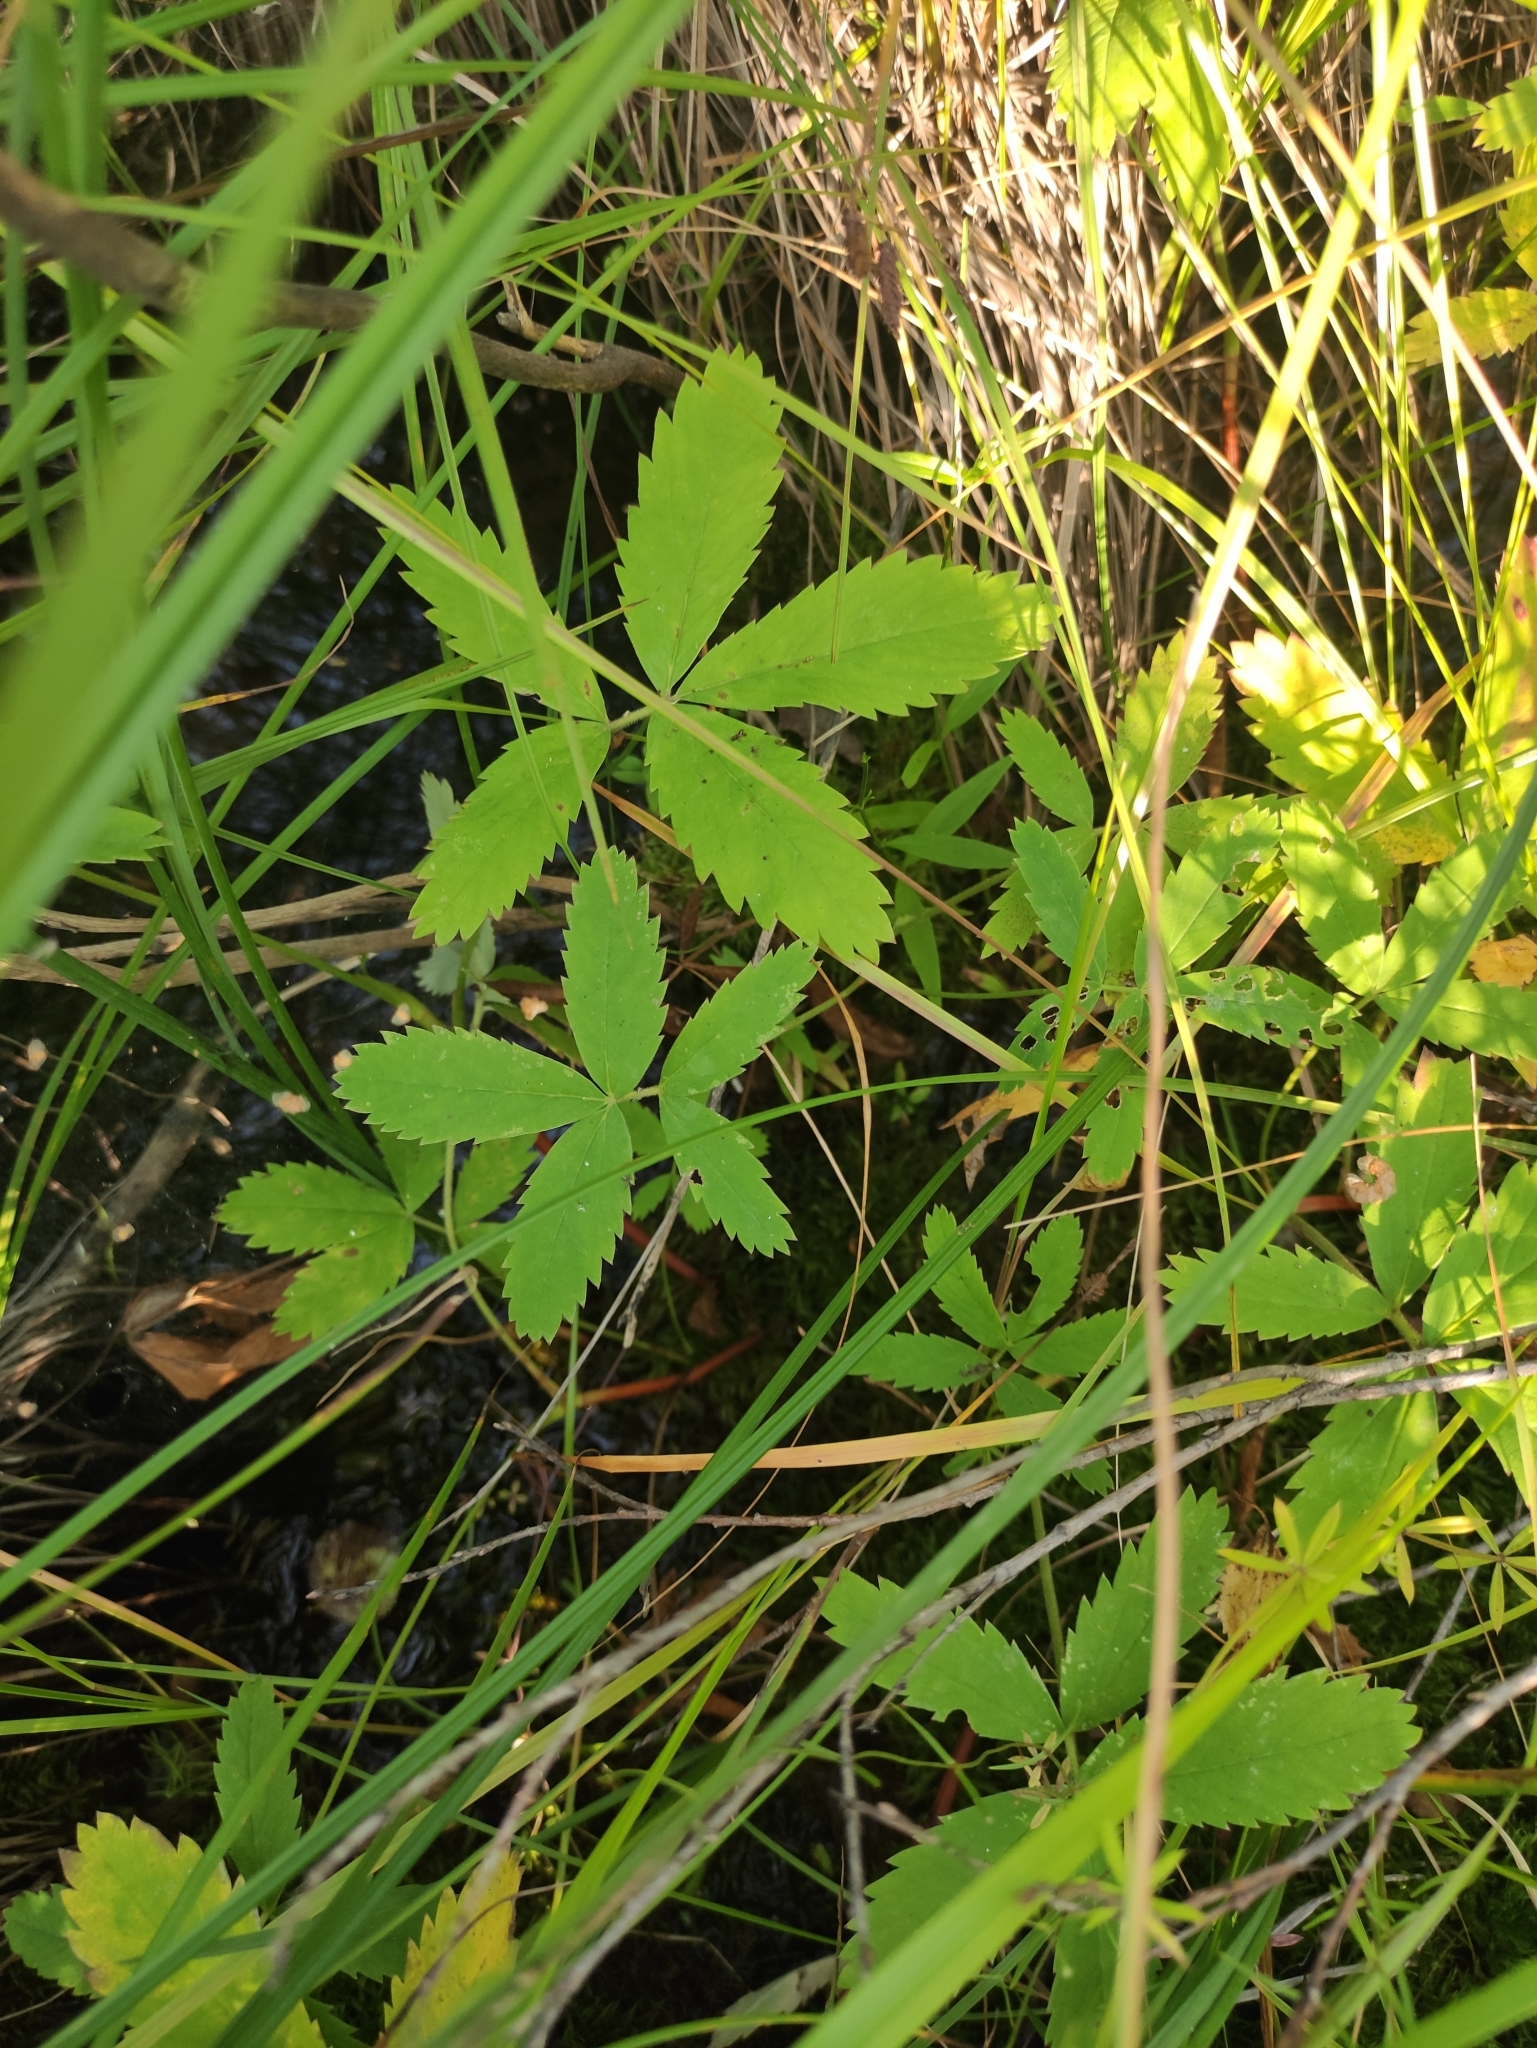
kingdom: Plantae
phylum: Tracheophyta
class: Magnoliopsida
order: Rosales
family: Rosaceae
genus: Comarum
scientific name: Comarum palustre
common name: Marsh cinquefoil
